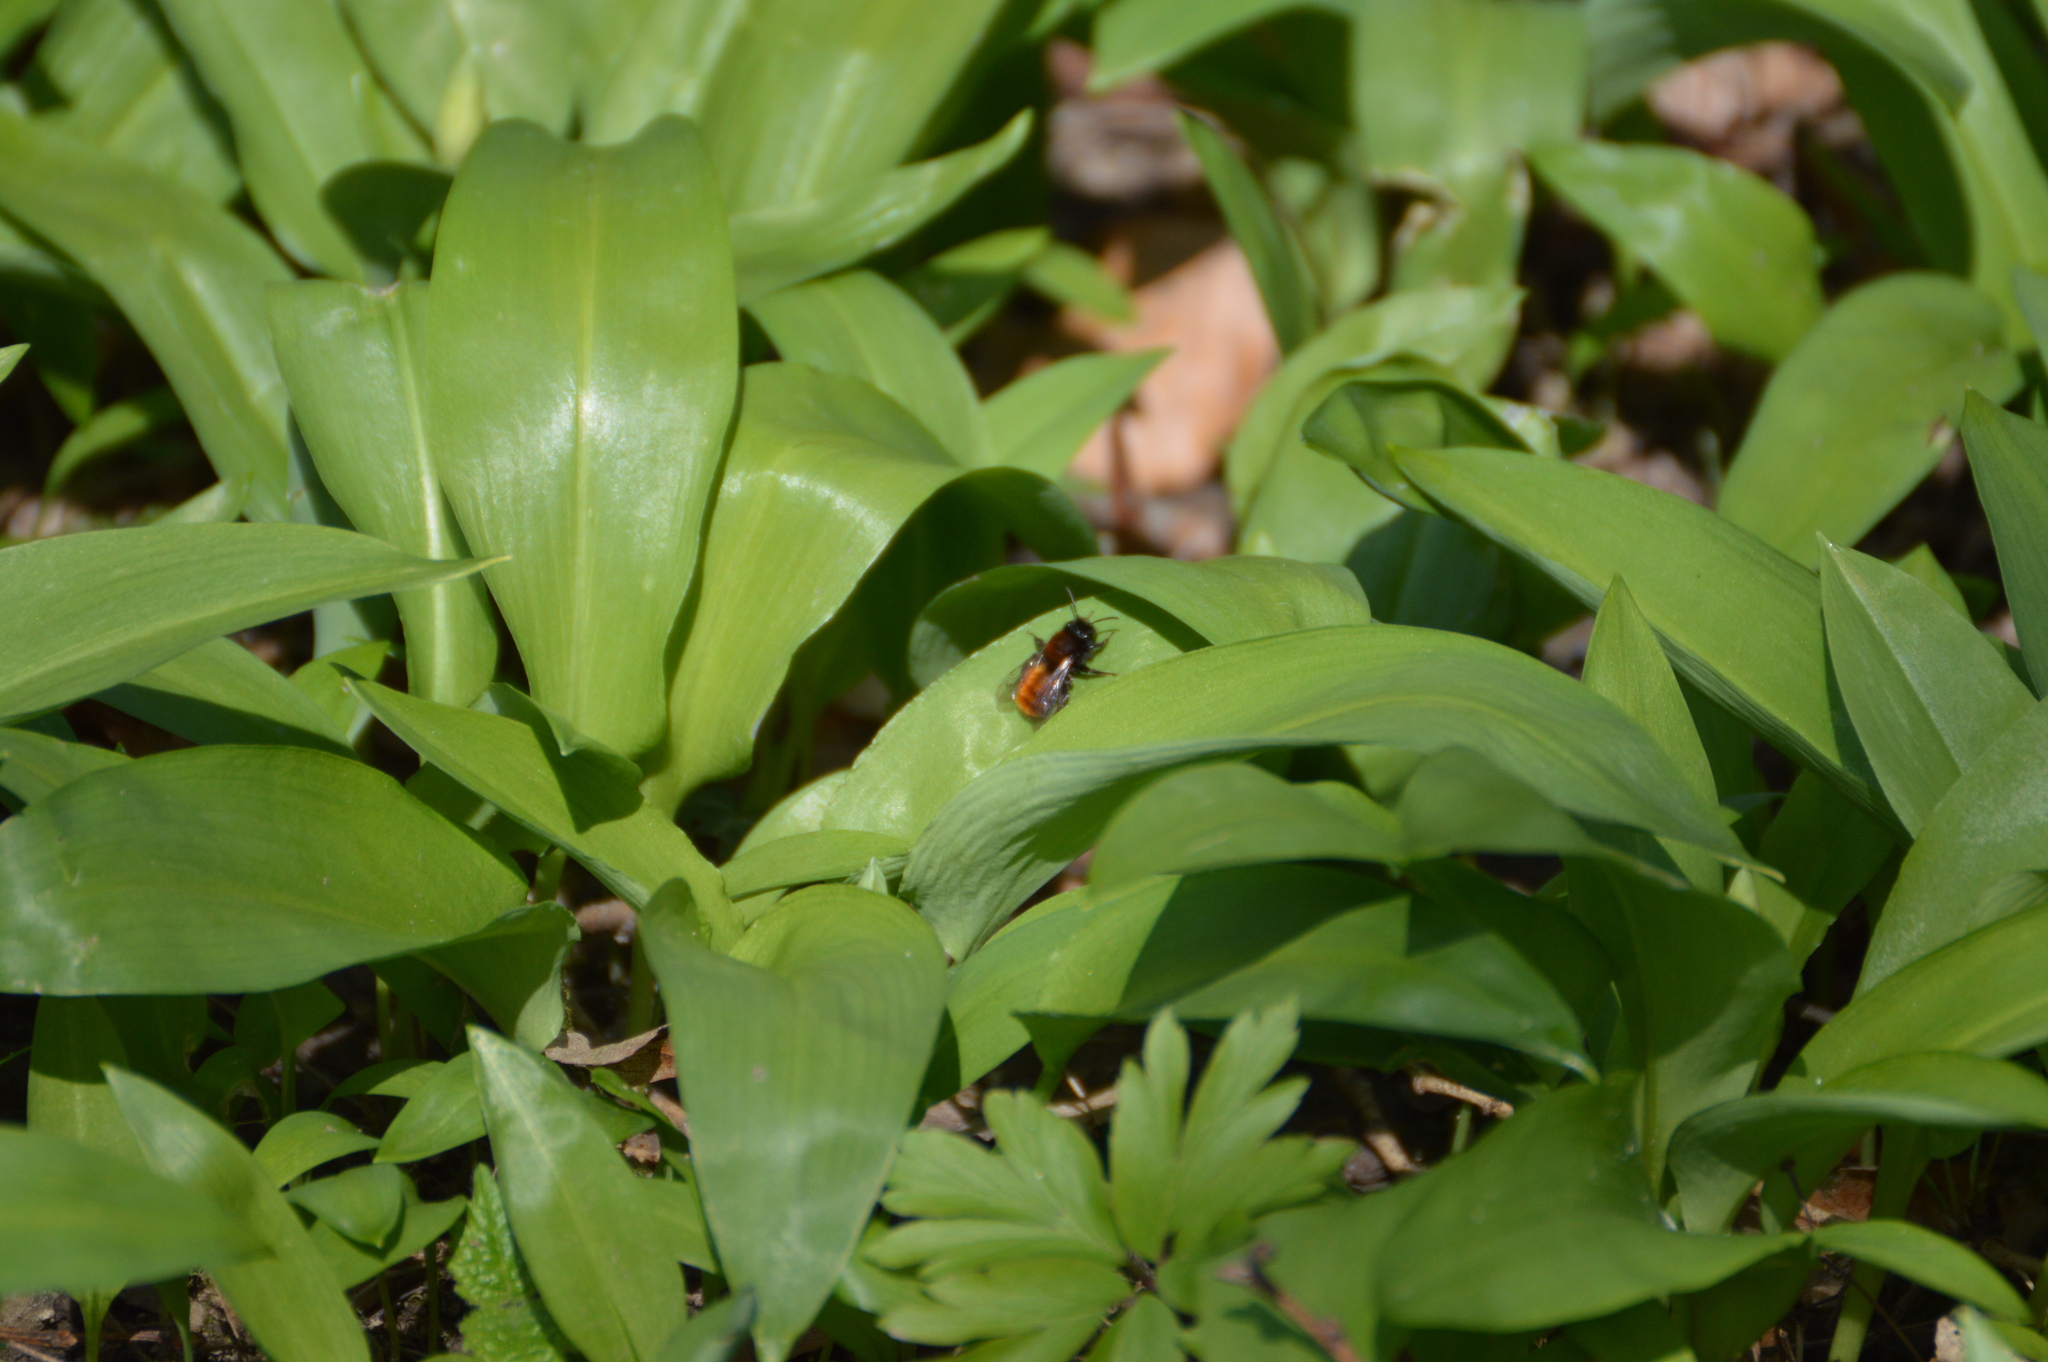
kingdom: Animalia
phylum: Arthropoda
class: Insecta
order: Hymenoptera
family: Andrenidae
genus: Andrena
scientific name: Andrena fulva
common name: Tawny mining bee
